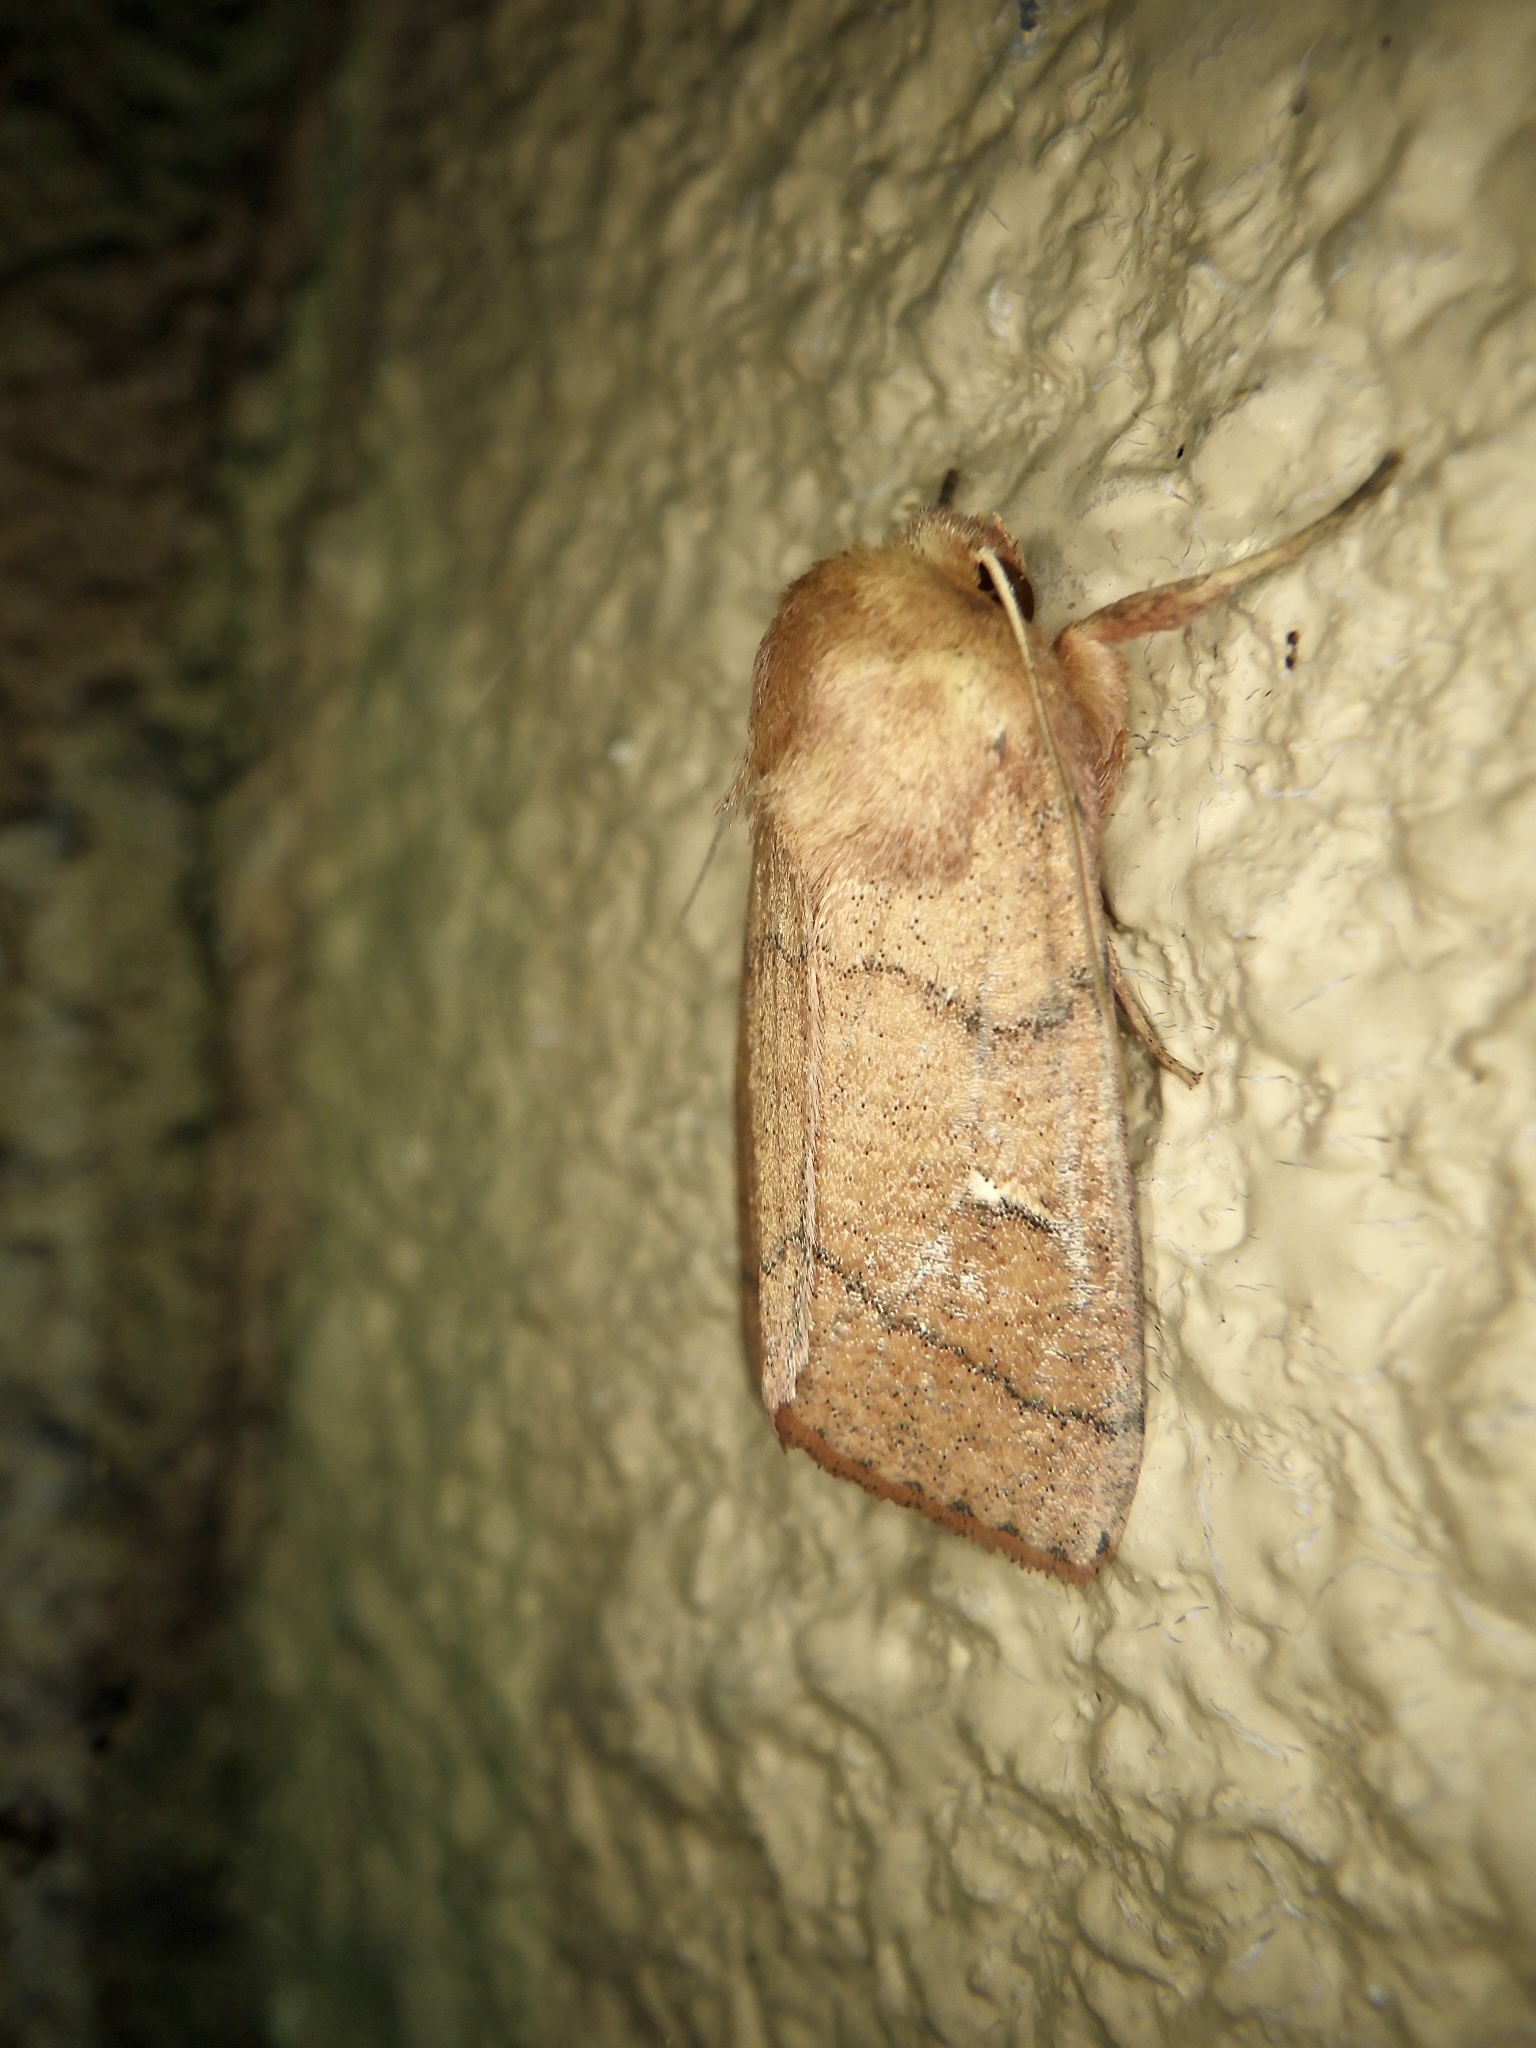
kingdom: Animalia
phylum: Arthropoda
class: Insecta
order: Lepidoptera
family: Noctuidae
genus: Mythimna
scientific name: Mythimna turca
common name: Double line
